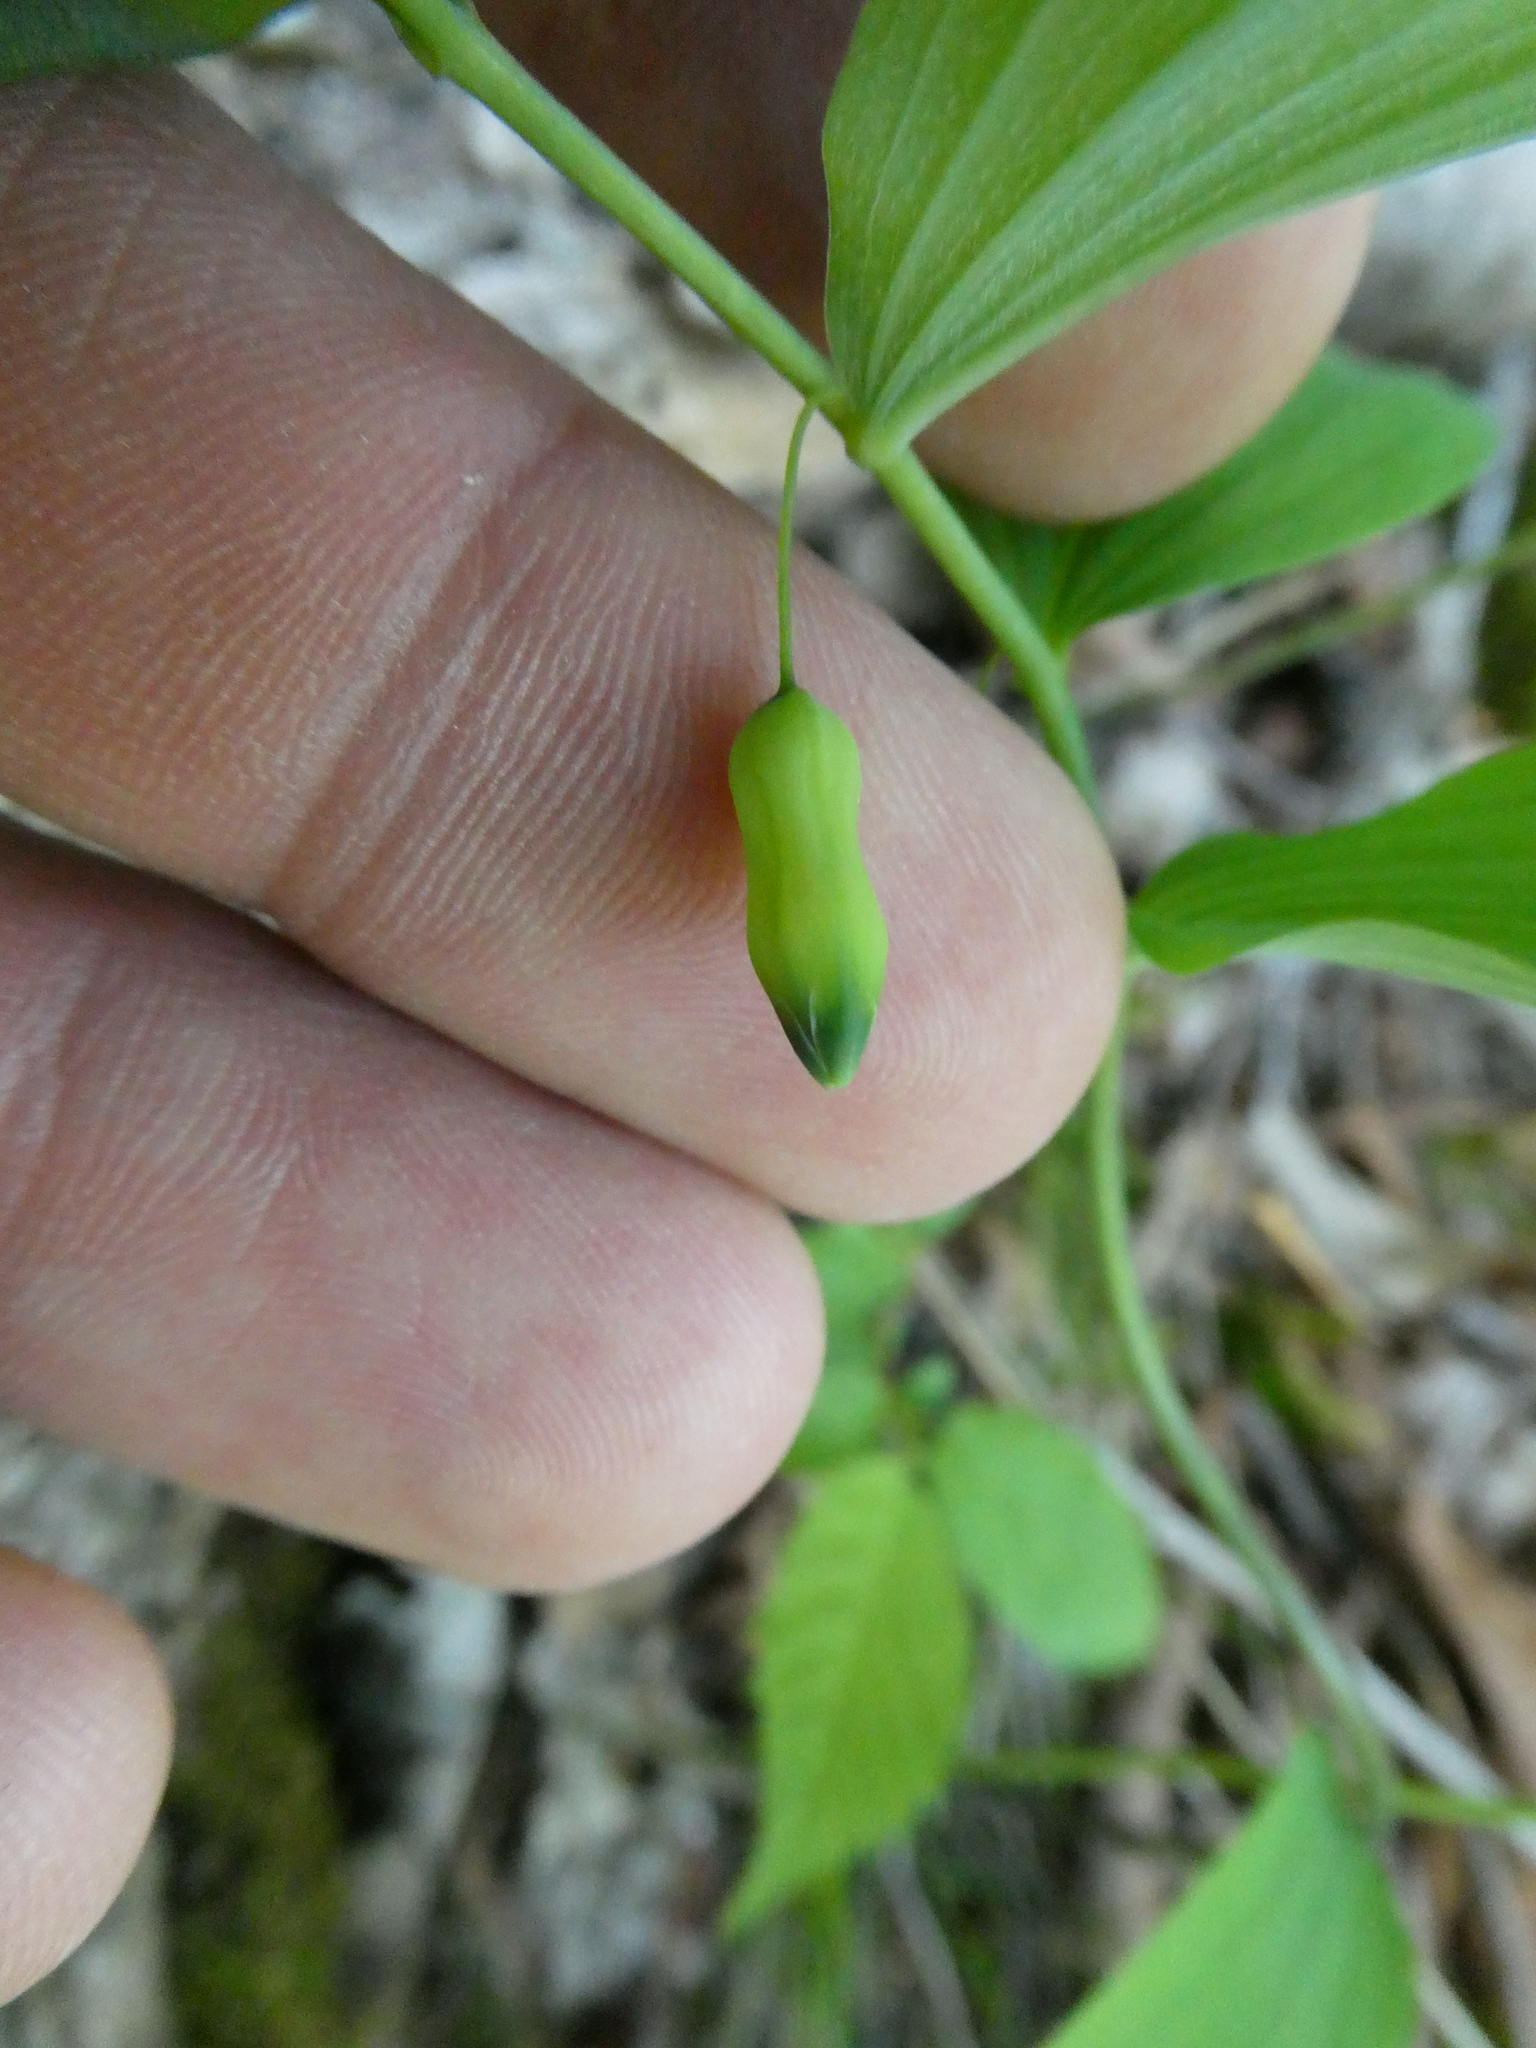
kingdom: Plantae
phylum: Tracheophyta
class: Liliopsida
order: Asparagales
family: Asparagaceae
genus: Polygonatum
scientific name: Polygonatum pubescens
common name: Downy solomon's seal
